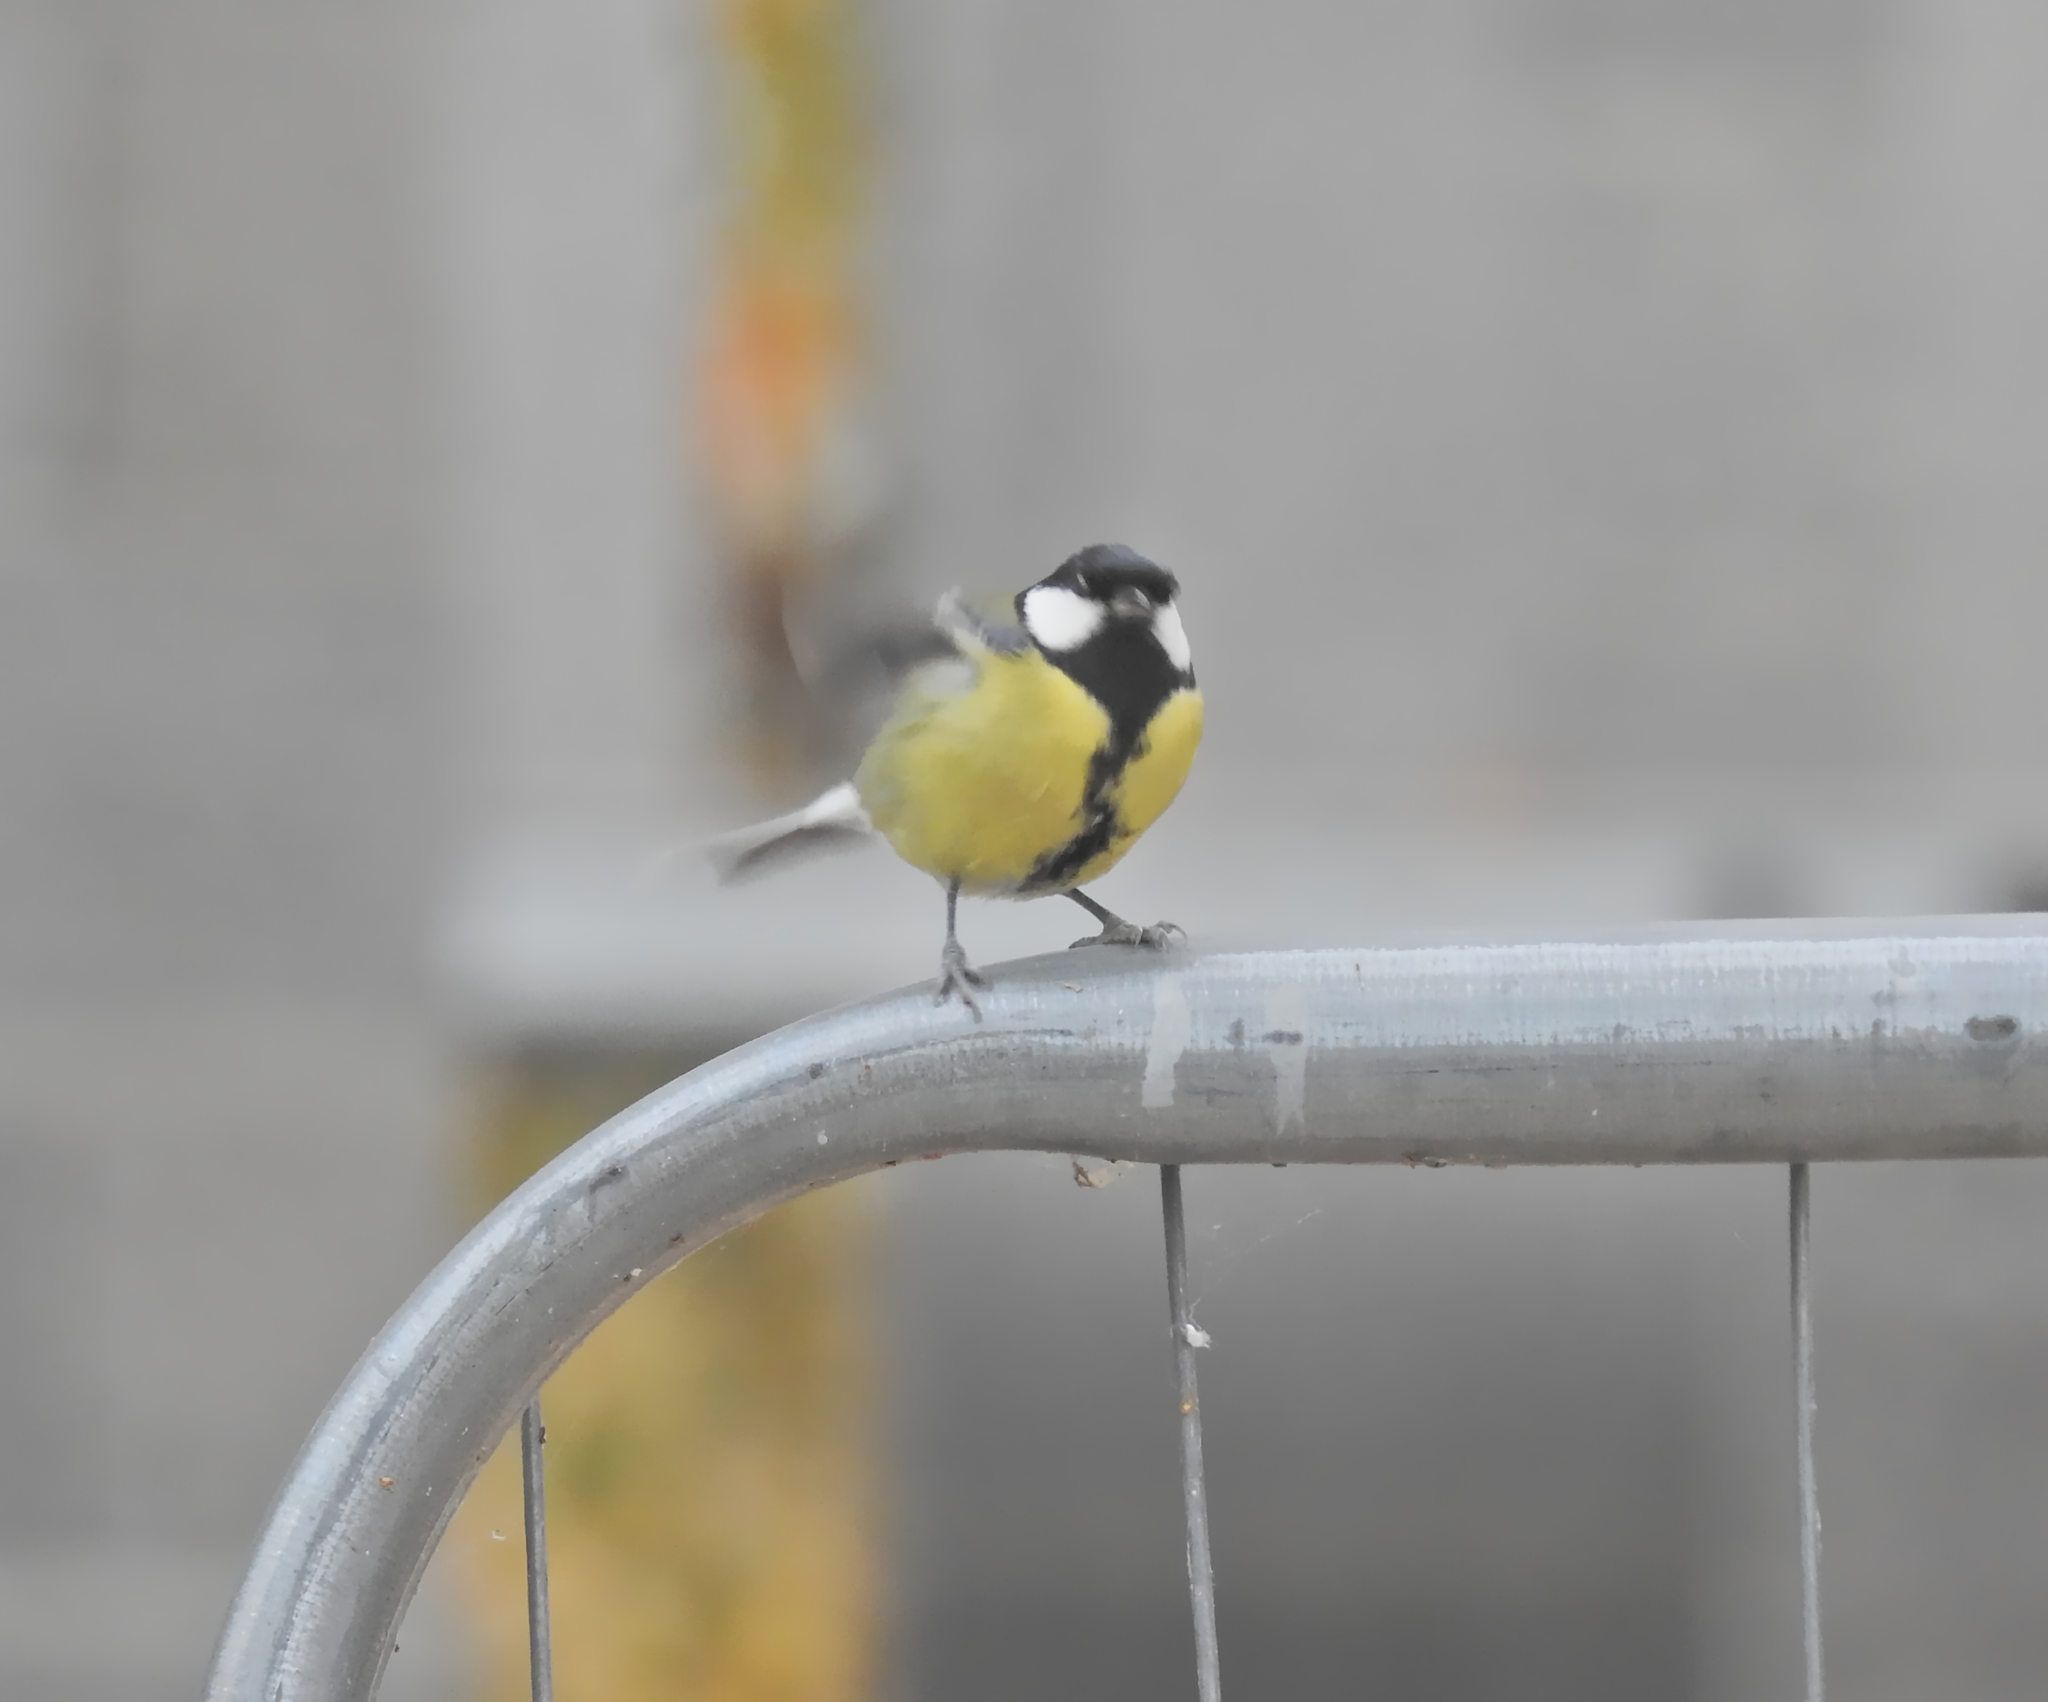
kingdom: Animalia
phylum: Chordata
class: Aves
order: Passeriformes
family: Paridae
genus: Parus
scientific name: Parus major
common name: Great tit
